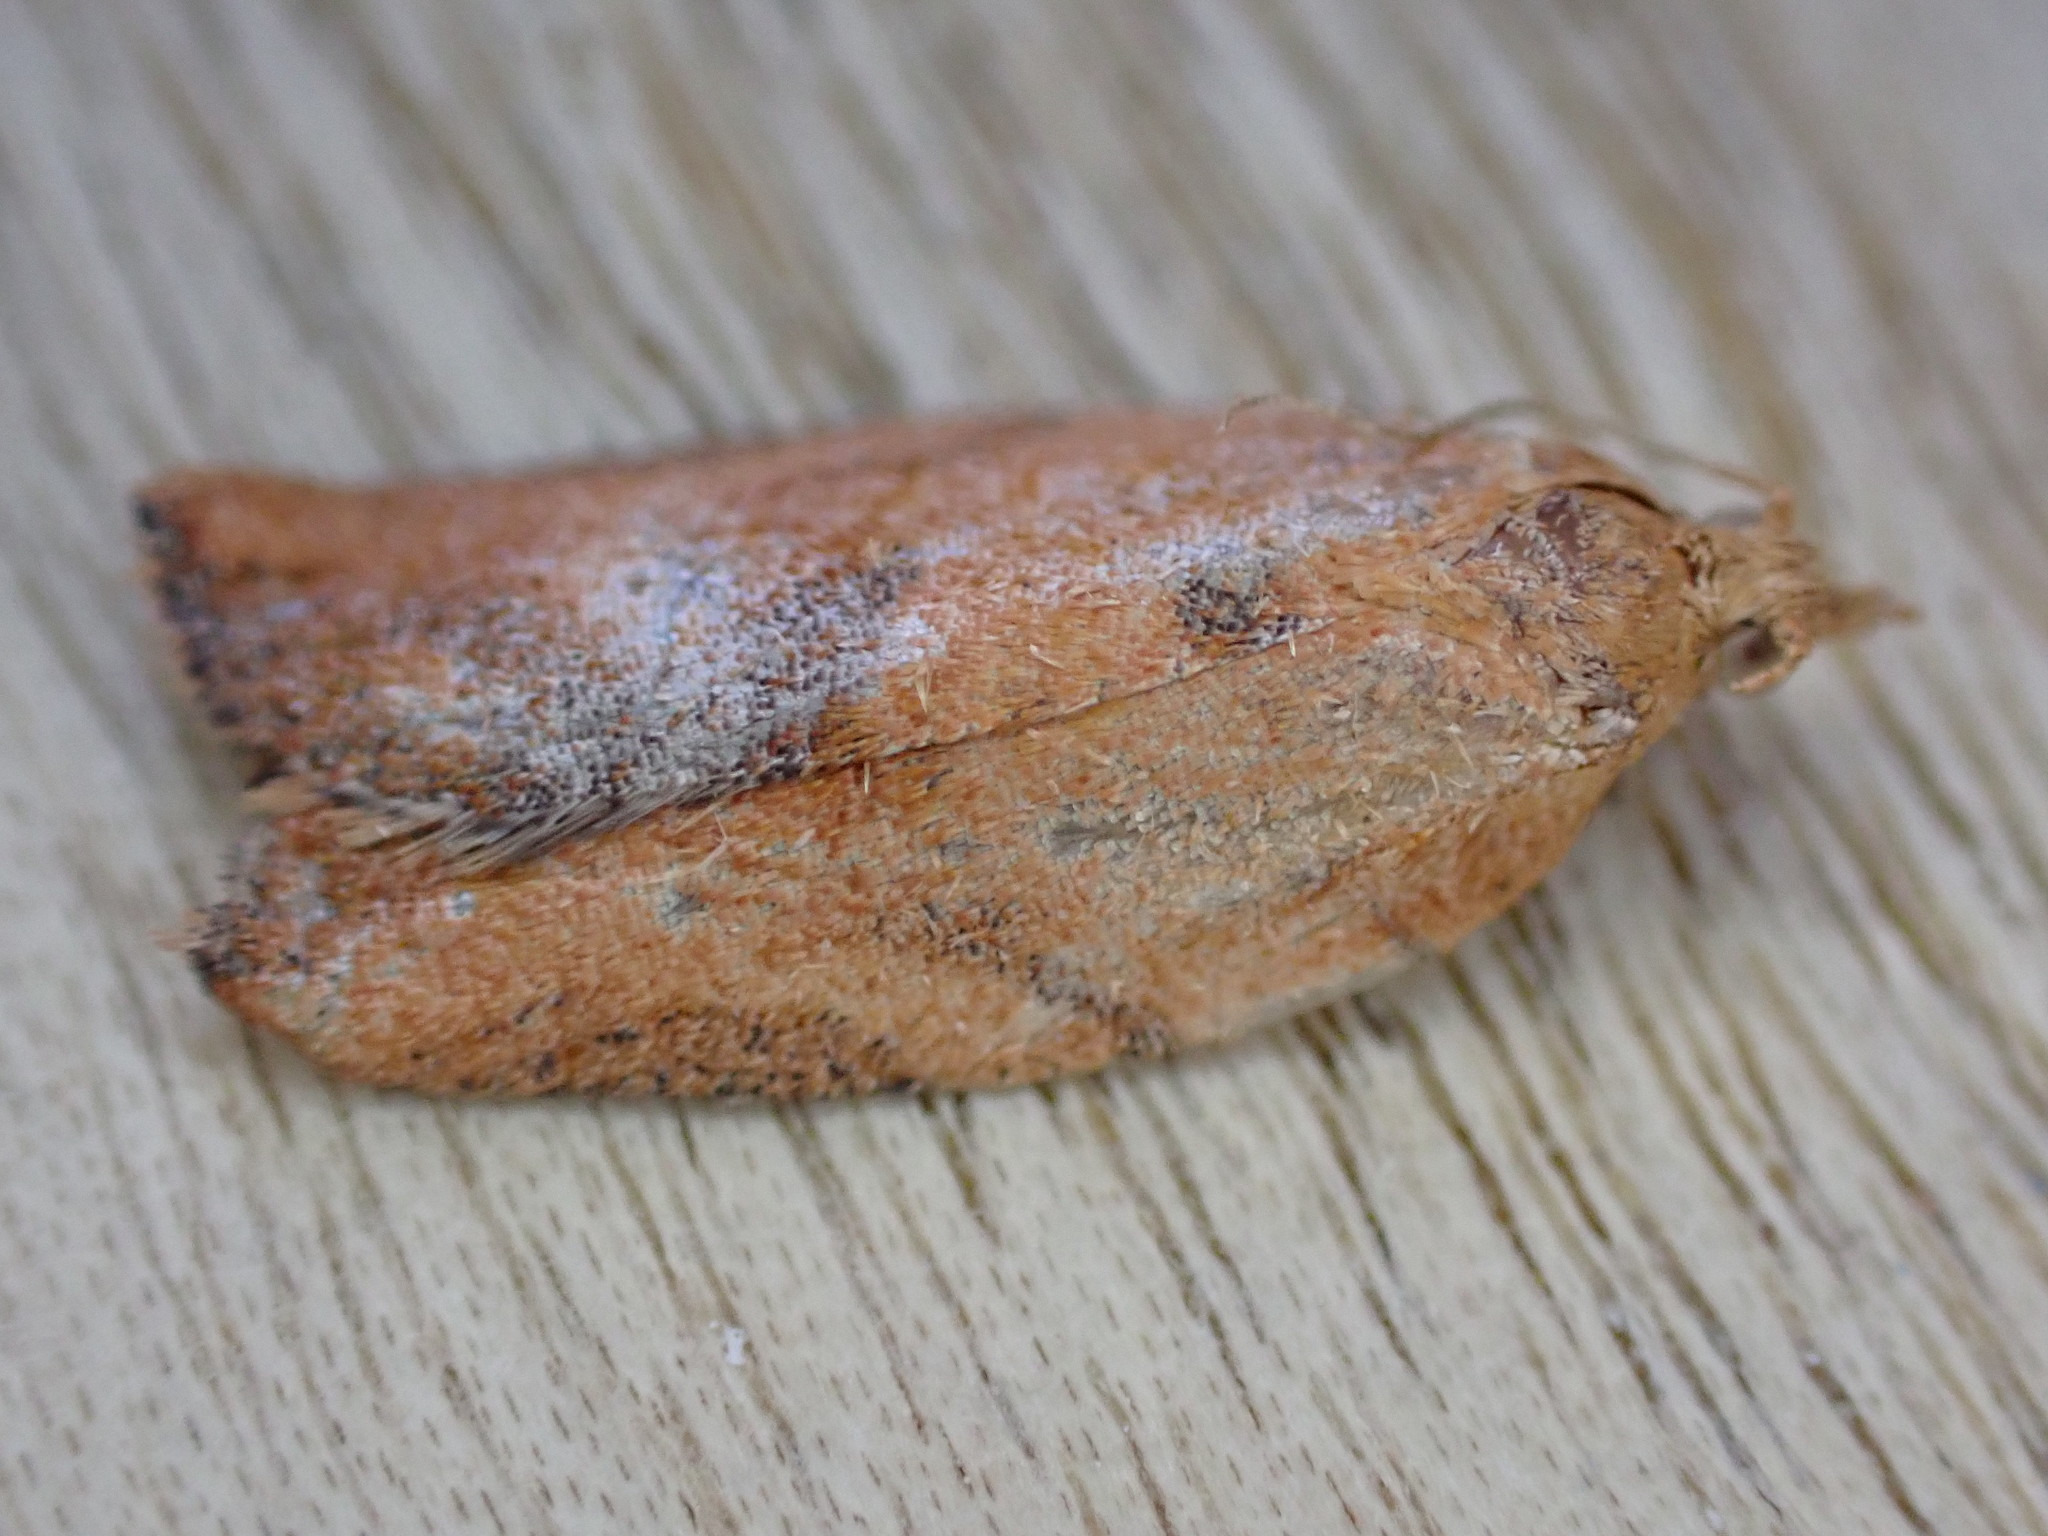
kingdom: Animalia
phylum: Arthropoda
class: Insecta
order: Lepidoptera
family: Tortricidae
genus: Epiphyas
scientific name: Epiphyas postvittana
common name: Light brown apple moth
